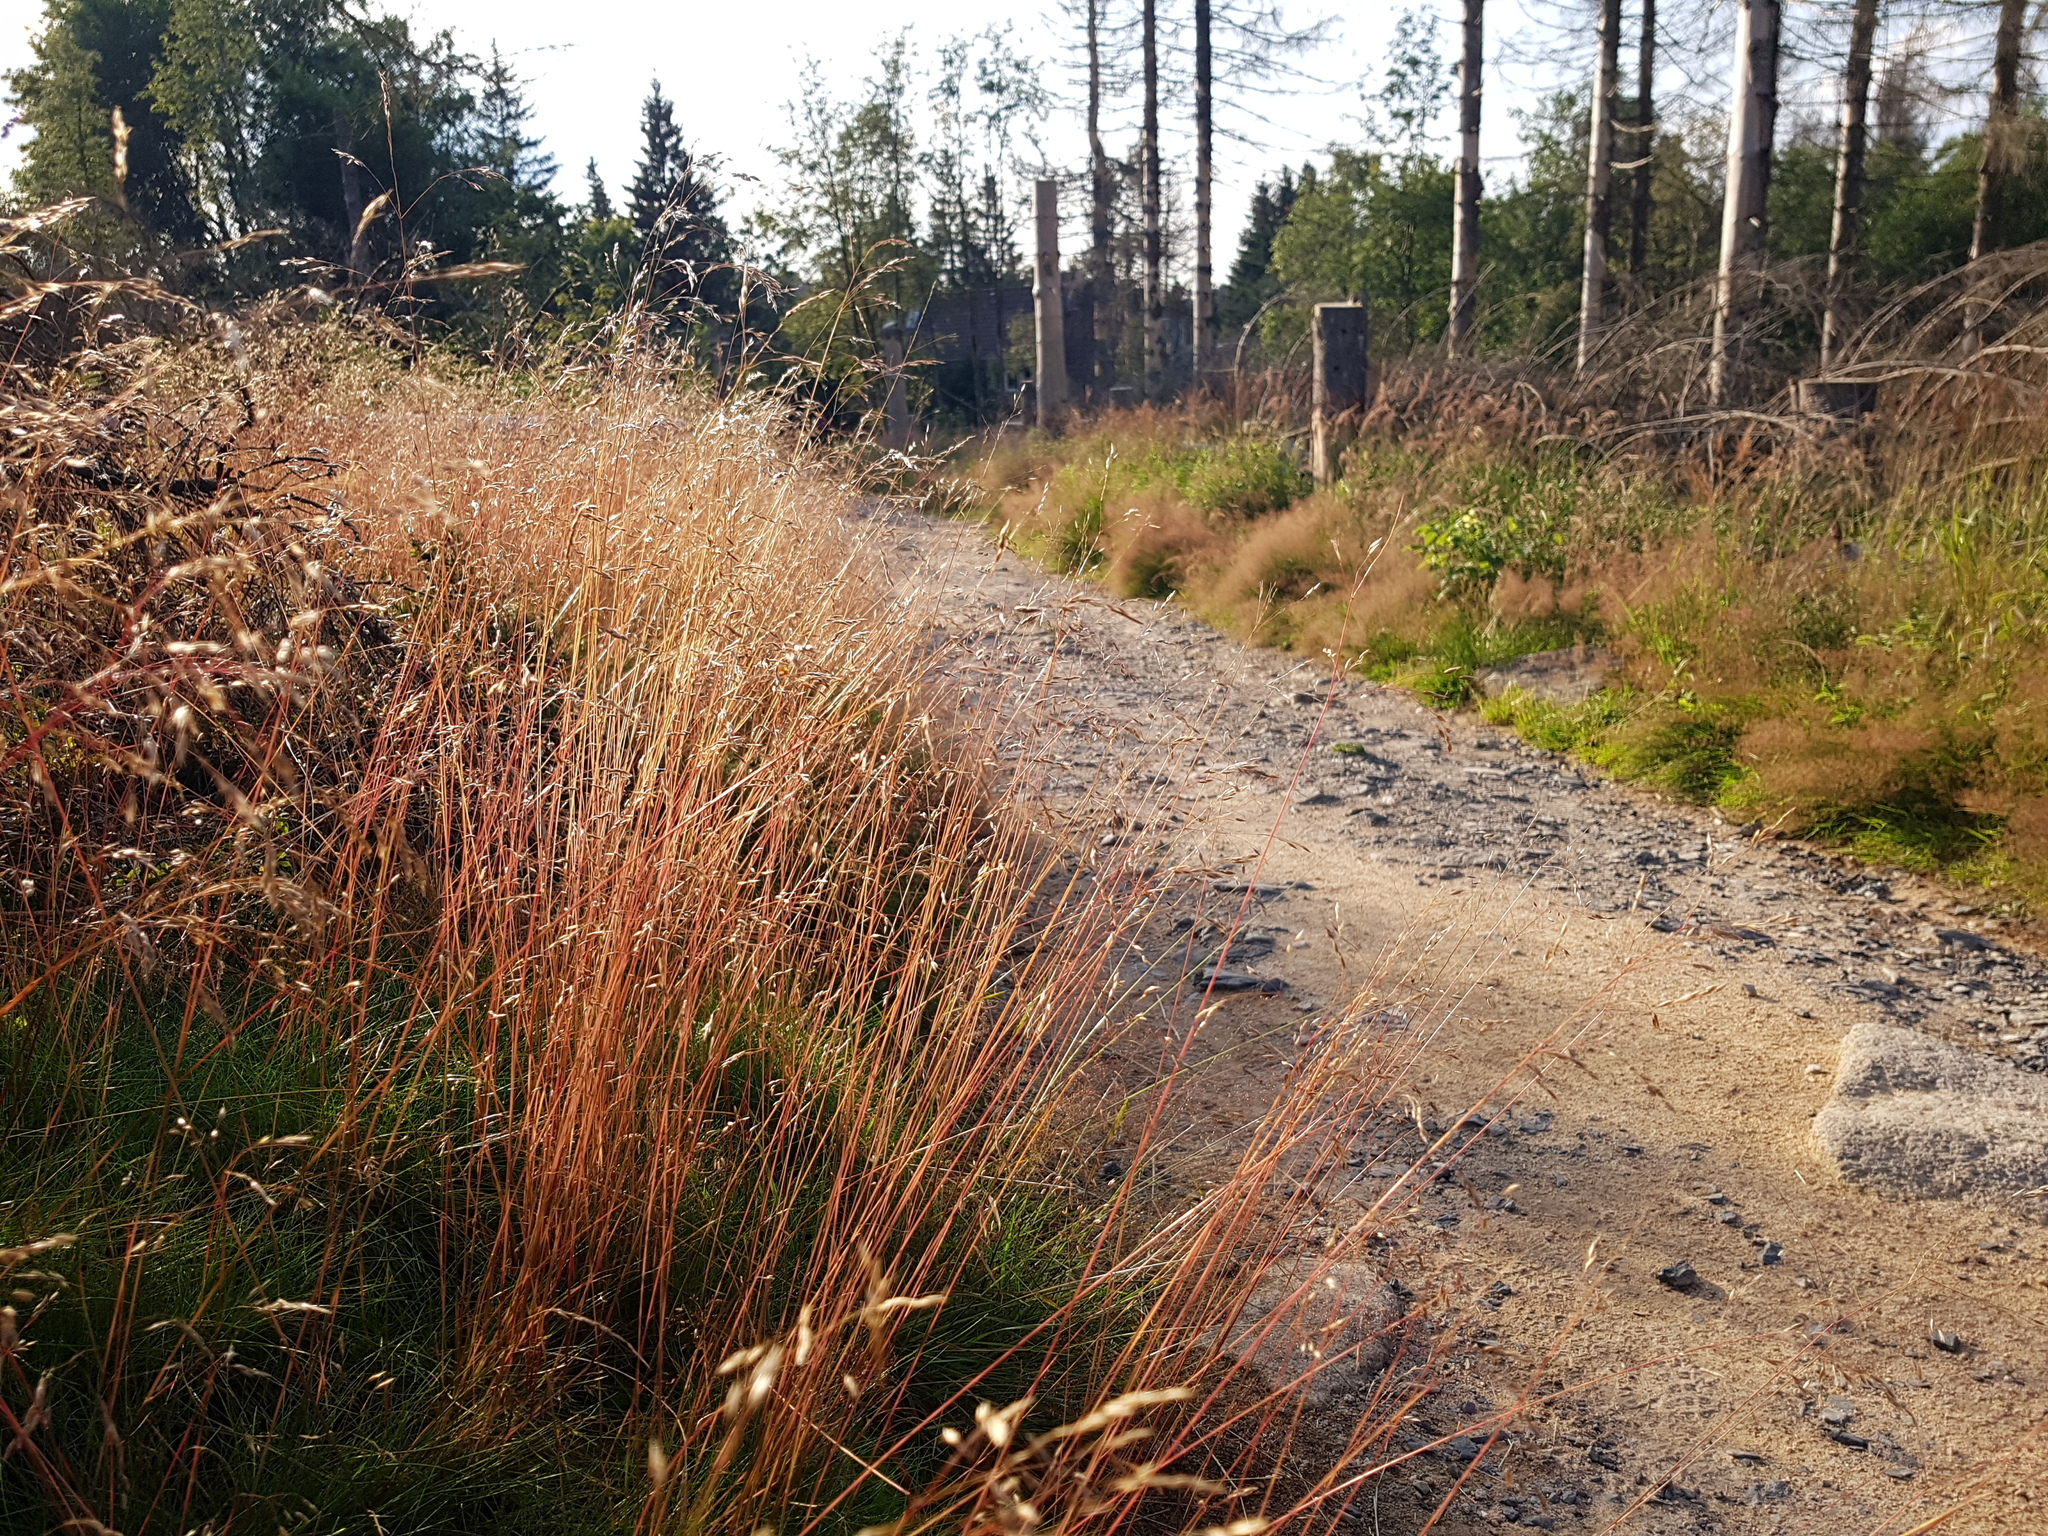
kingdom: Plantae
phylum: Tracheophyta
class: Liliopsida
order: Poales
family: Poaceae
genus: Avenella
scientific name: Avenella flexuosa
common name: Wavy hairgrass
